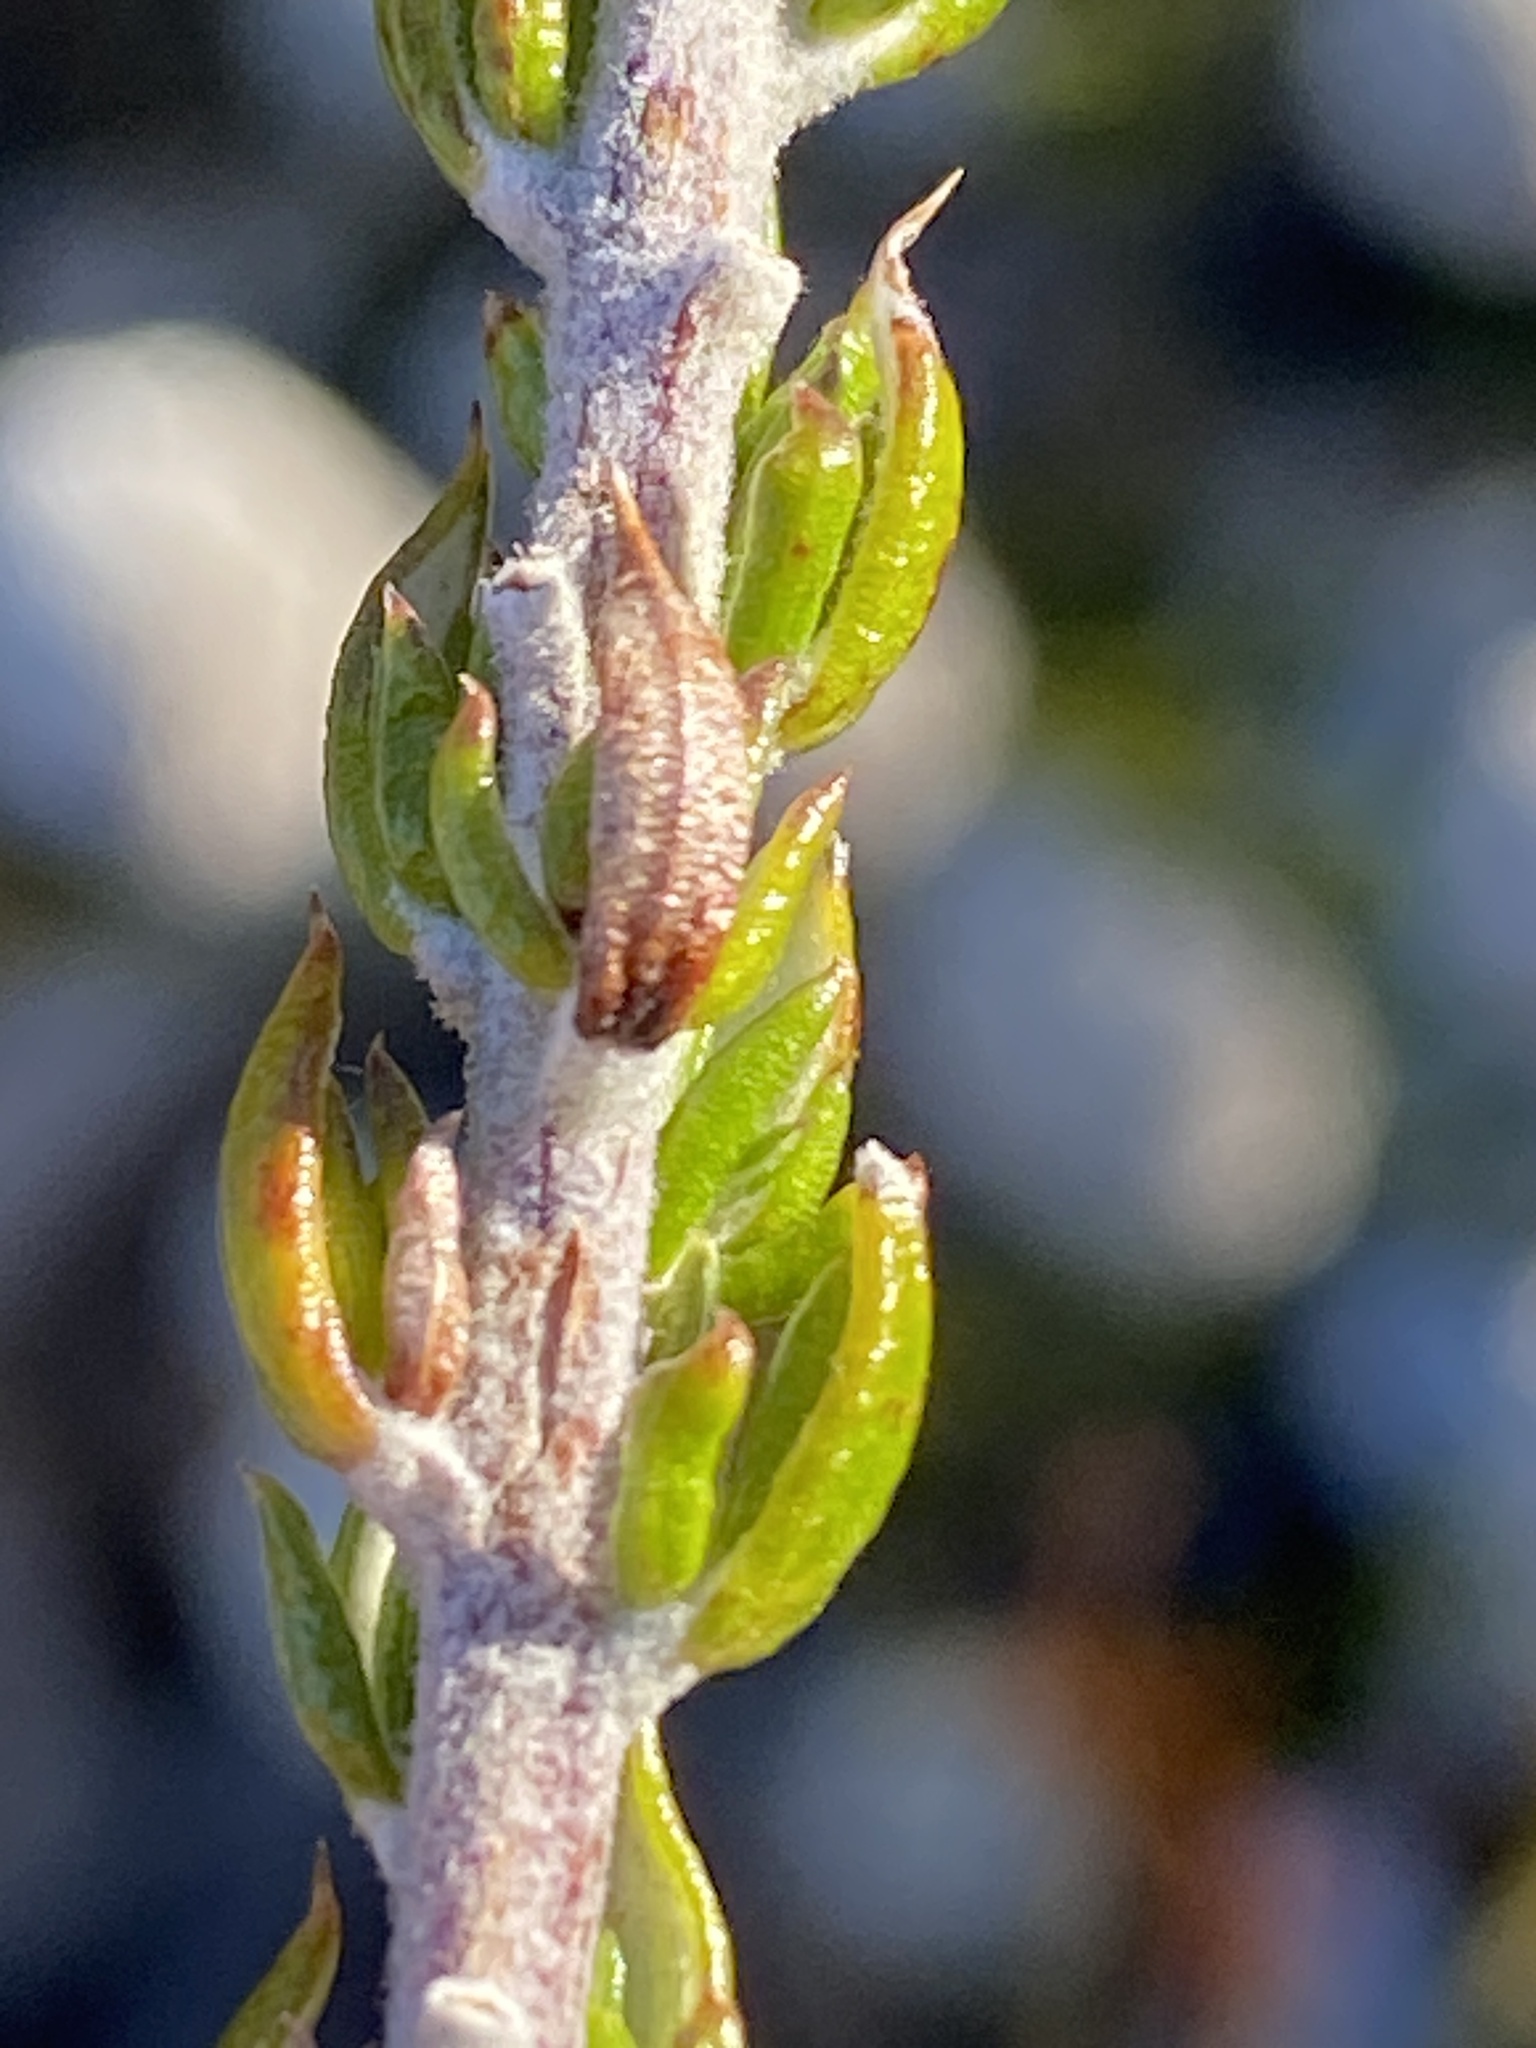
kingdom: Plantae
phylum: Tracheophyta
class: Magnoliopsida
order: Asterales
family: Asteraceae
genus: Metalasia
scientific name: Metalasia pungens
